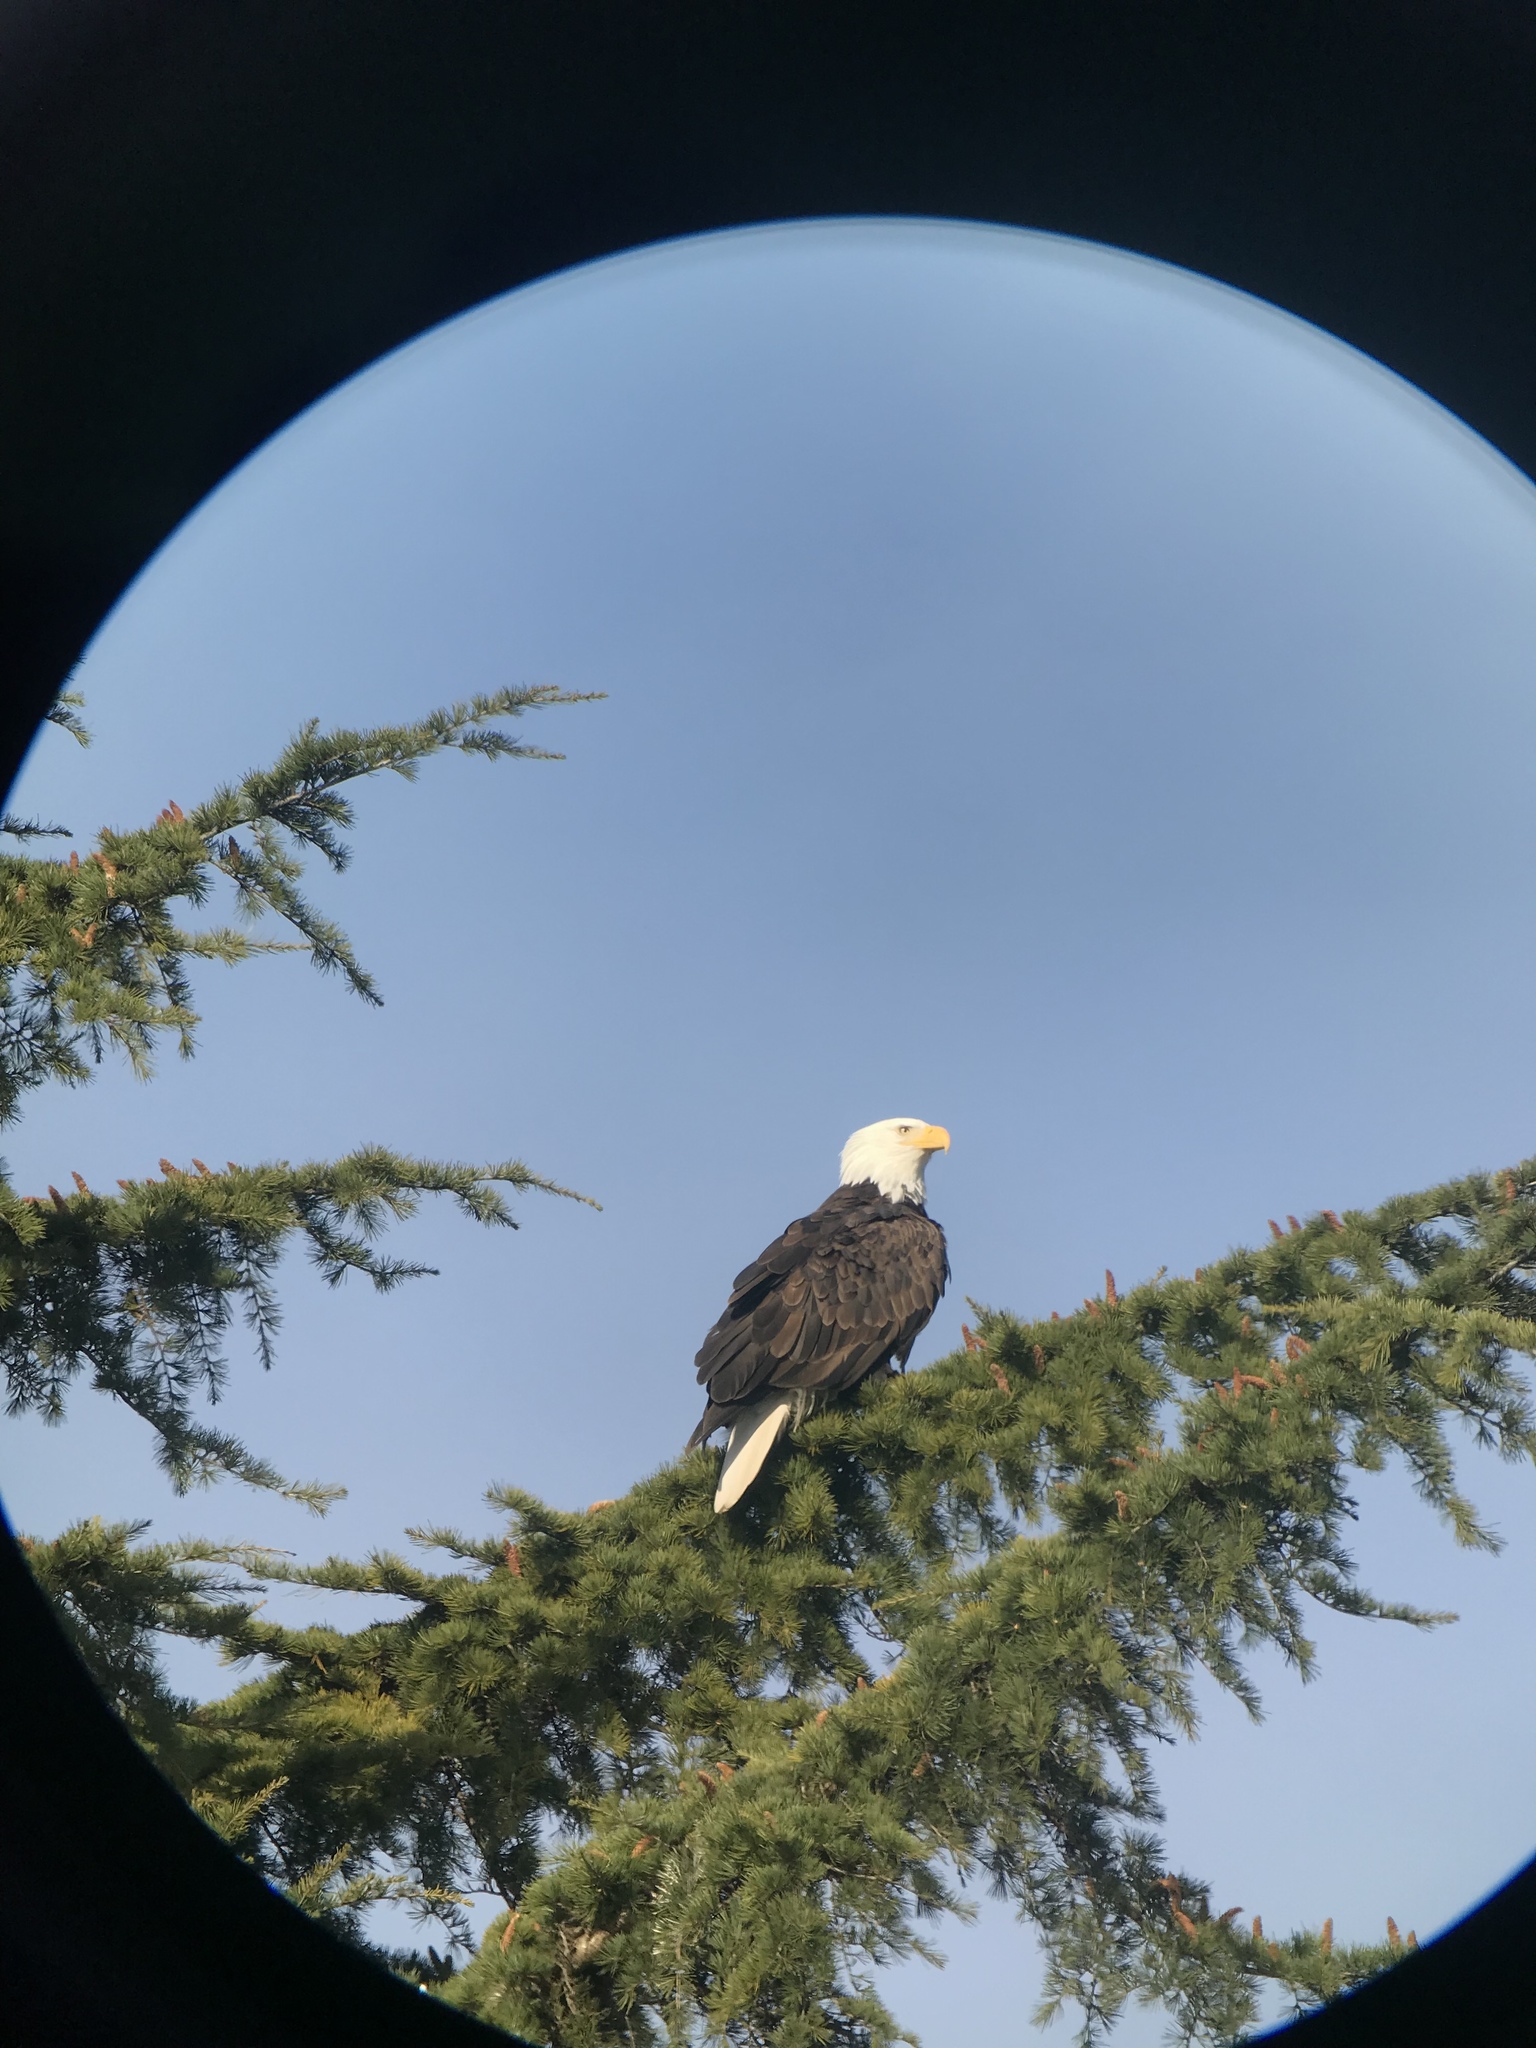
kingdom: Animalia
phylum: Chordata
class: Aves
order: Accipitriformes
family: Accipitridae
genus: Haliaeetus
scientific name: Haliaeetus leucocephalus
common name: Bald eagle
